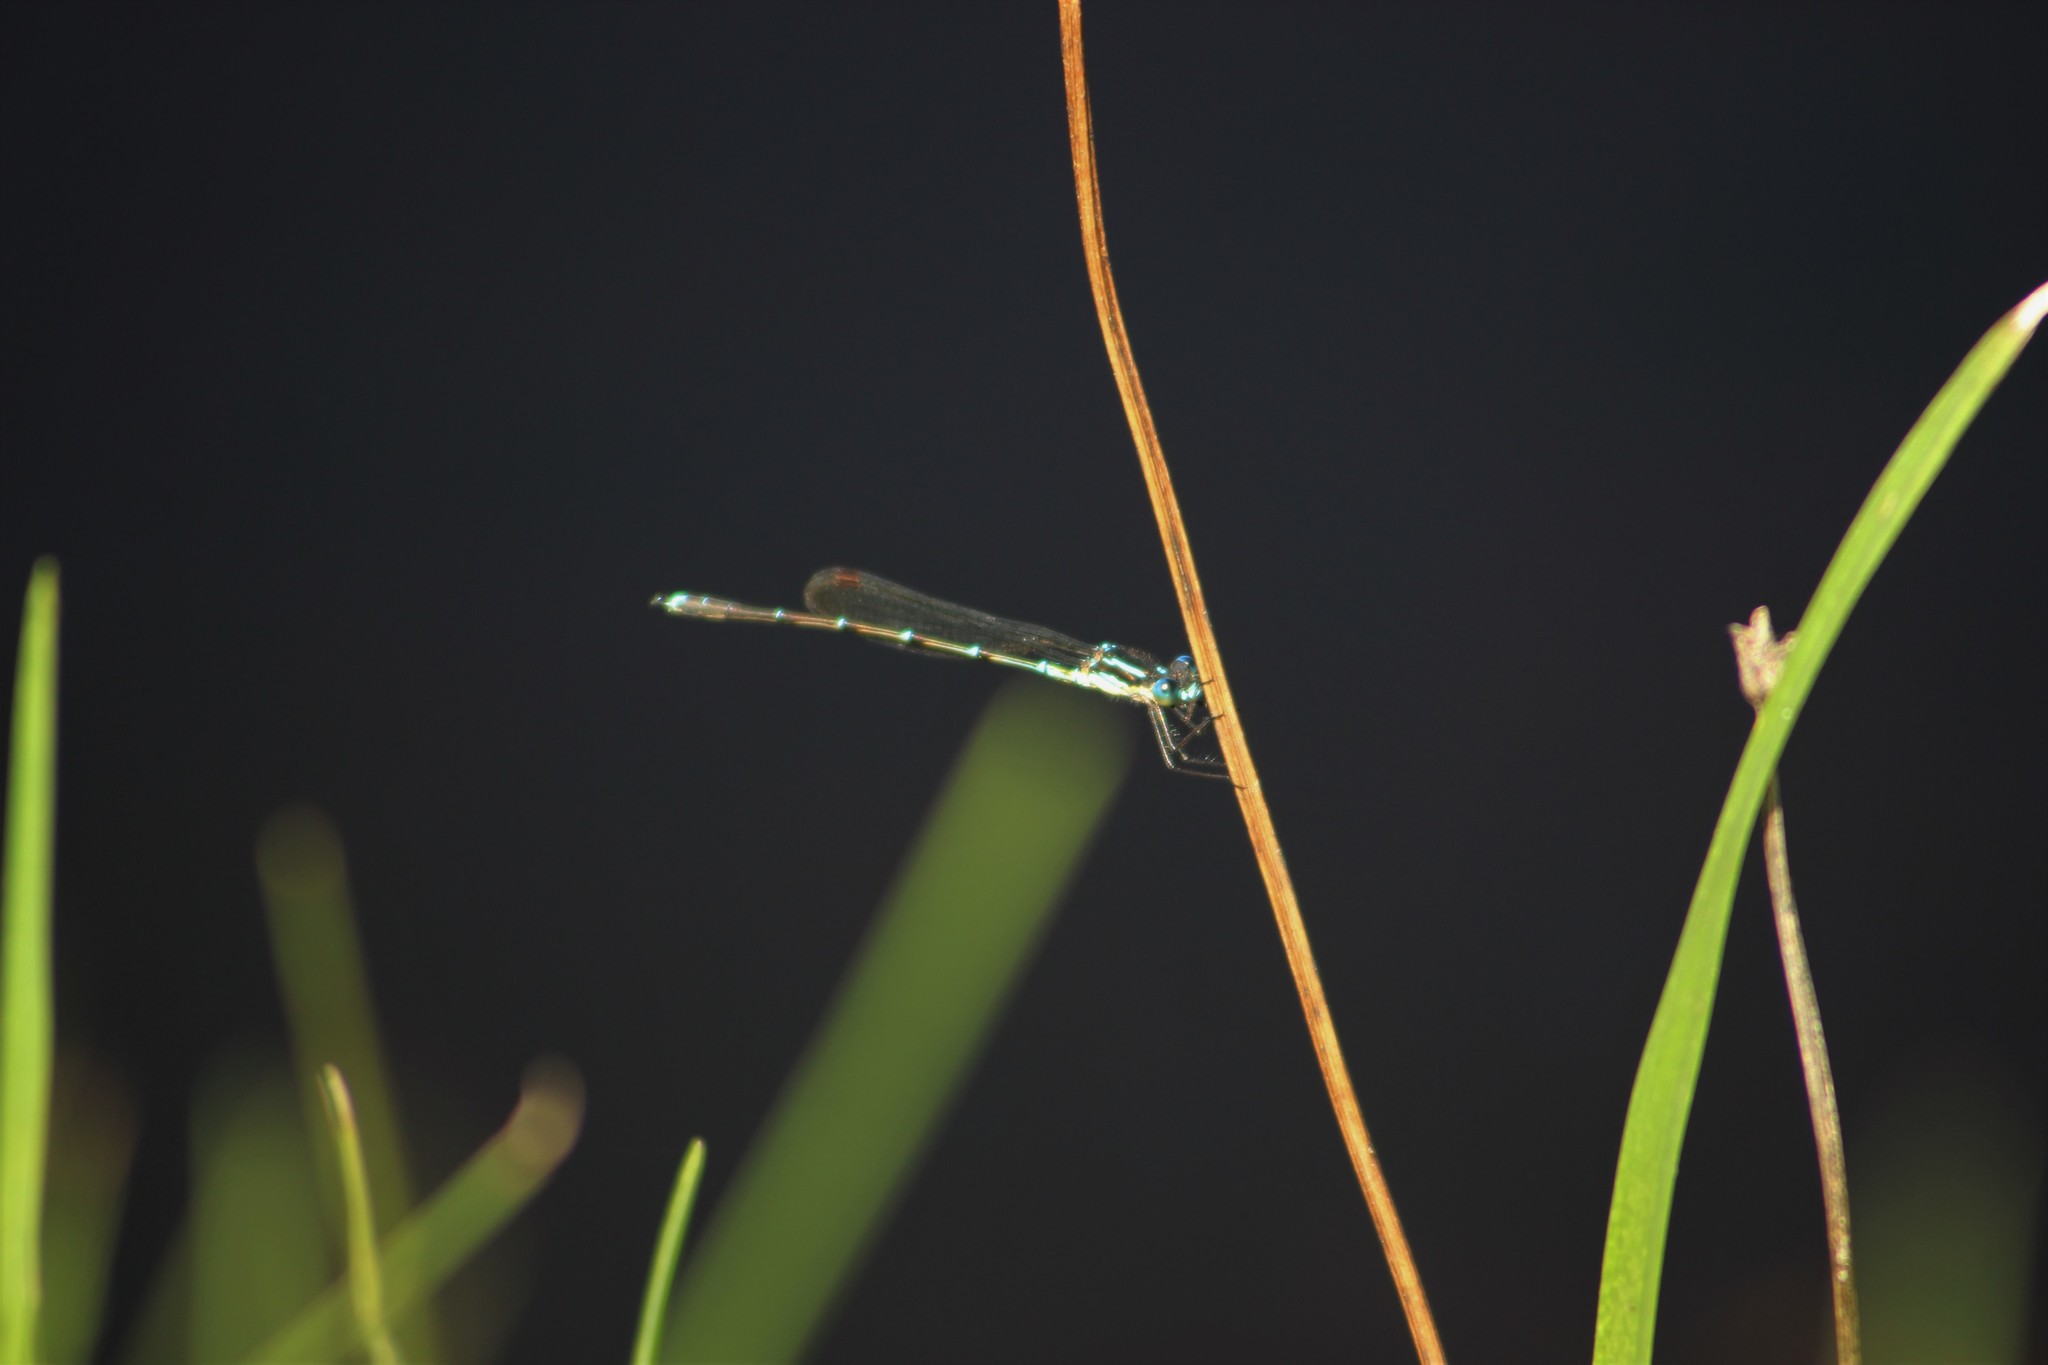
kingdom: Animalia
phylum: Arthropoda
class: Insecta
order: Odonata
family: Lestidae
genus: Austrolestes
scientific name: Austrolestes colensonis
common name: Blue damselfly
